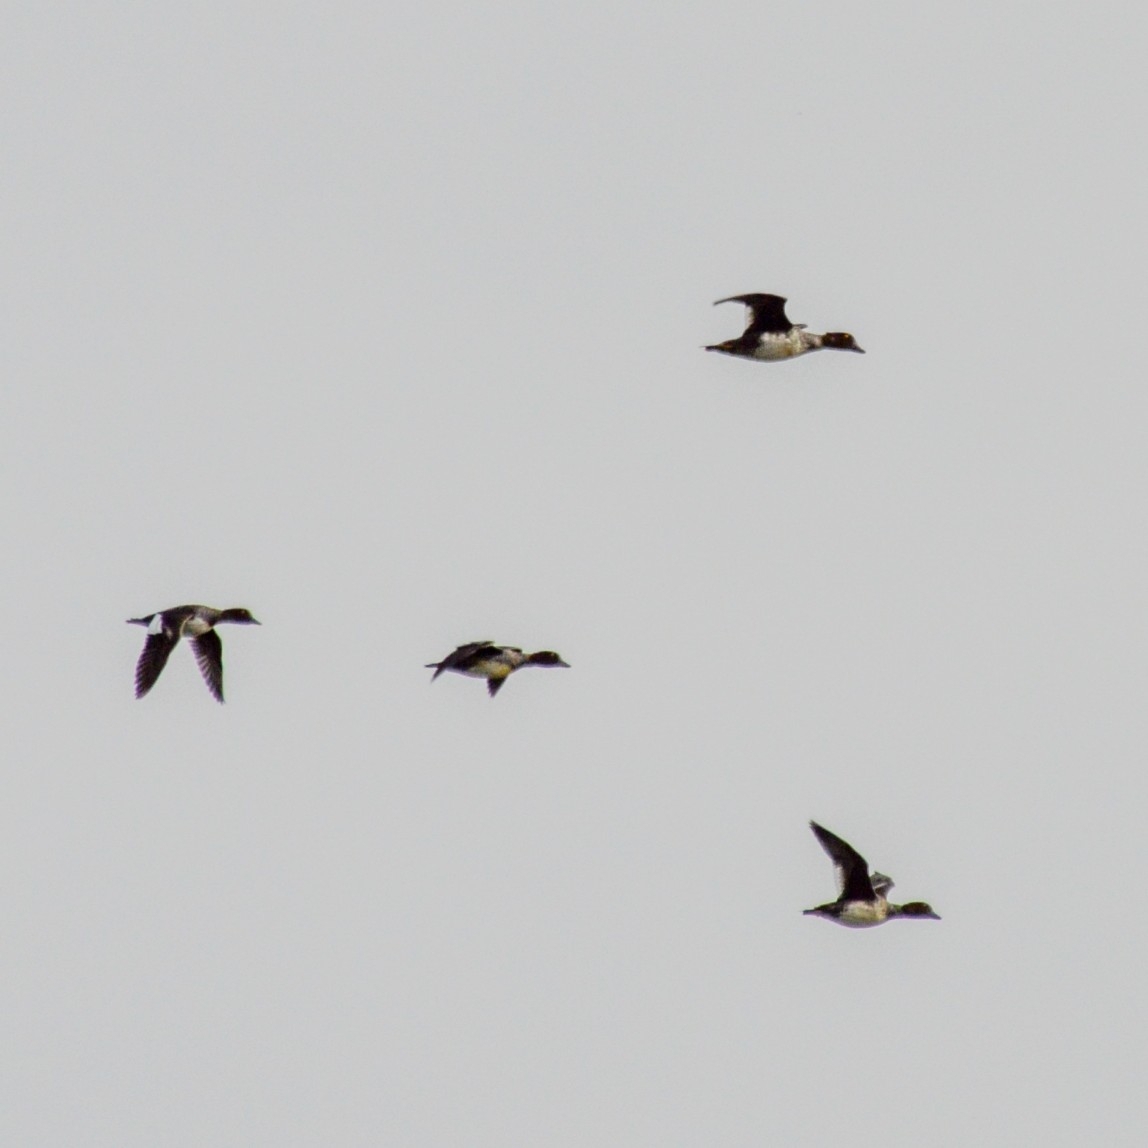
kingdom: Animalia
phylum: Chordata
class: Aves
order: Anseriformes
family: Anatidae
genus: Bucephala
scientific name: Bucephala clangula
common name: Common goldeneye
